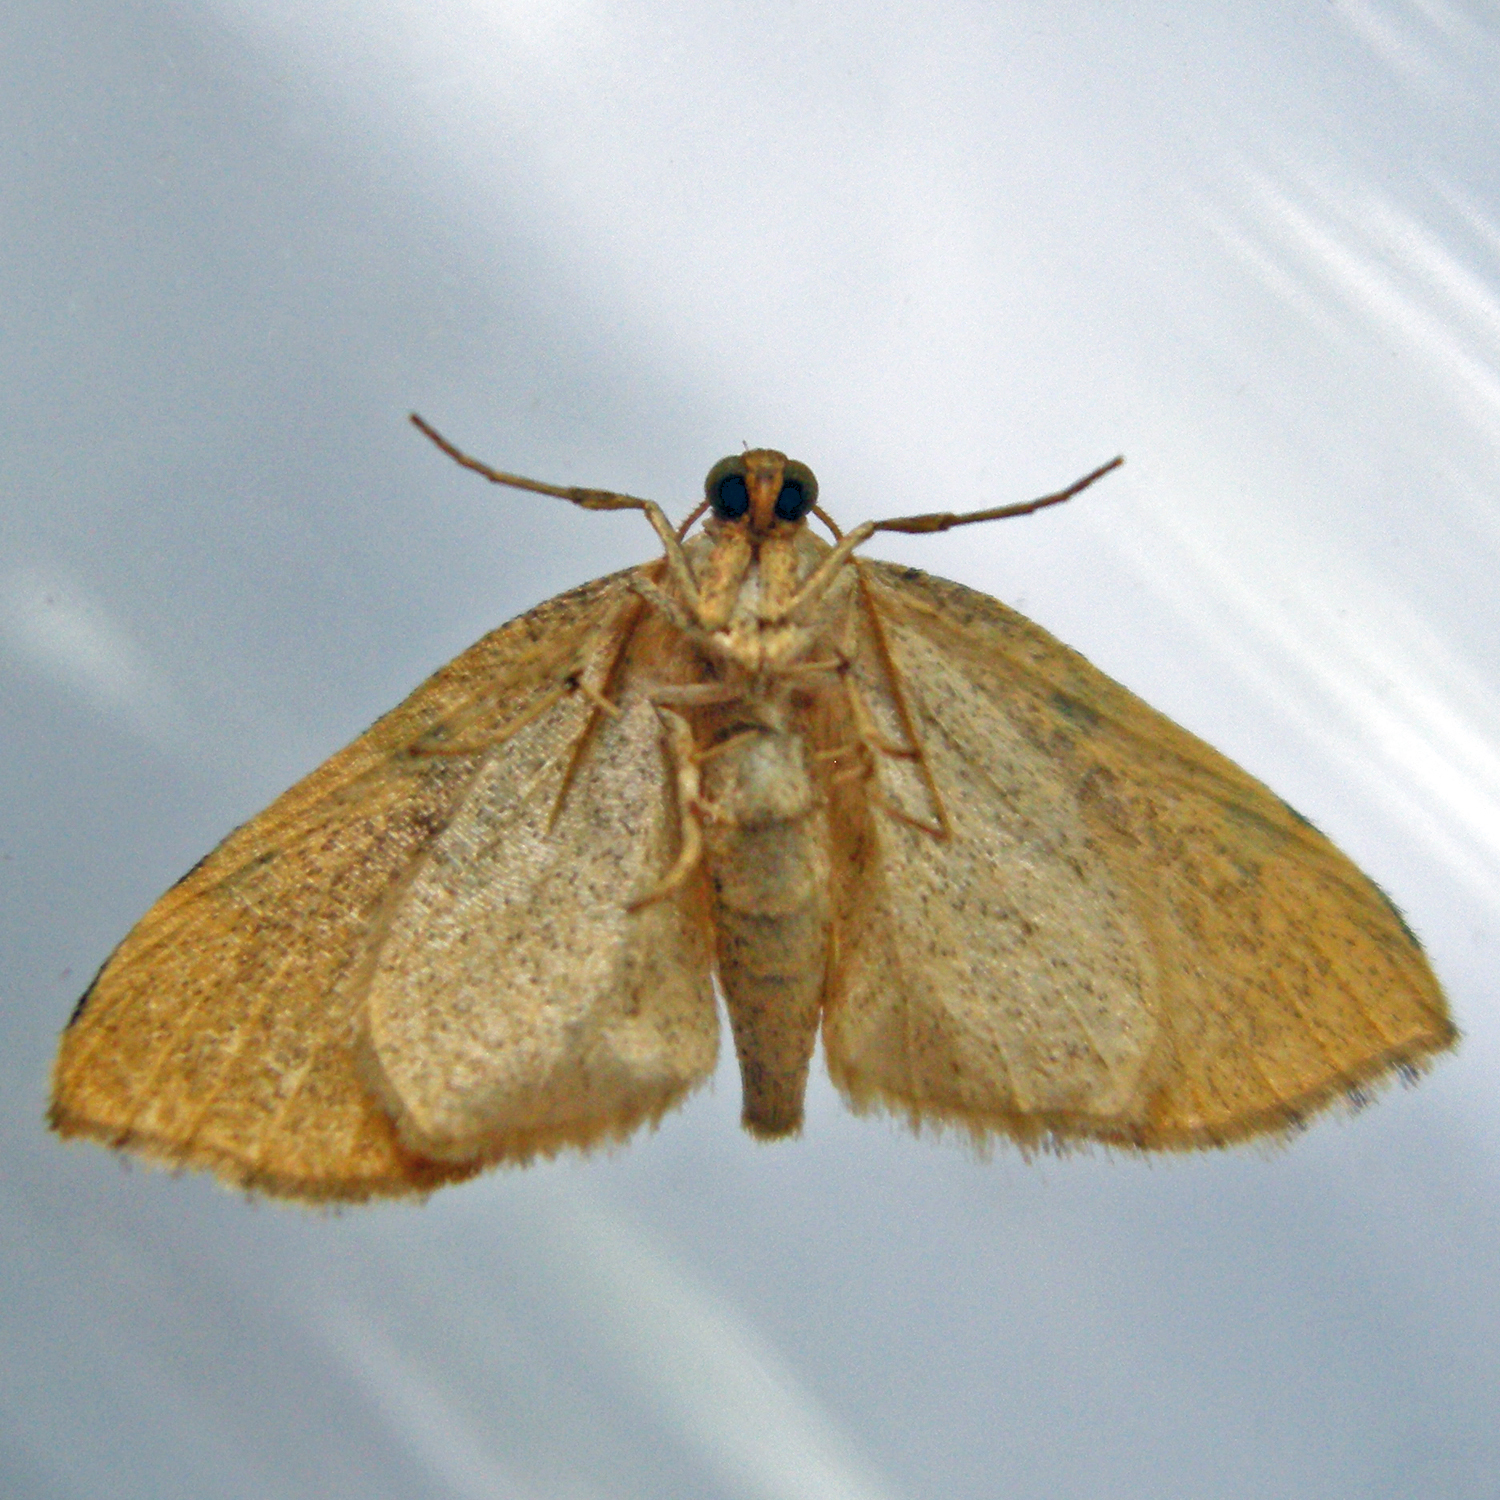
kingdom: Animalia
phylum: Arthropoda
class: Insecta
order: Lepidoptera
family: Geometridae
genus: Heterophleps
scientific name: Heterophleps triguttaria
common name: Three-spotted fillip
